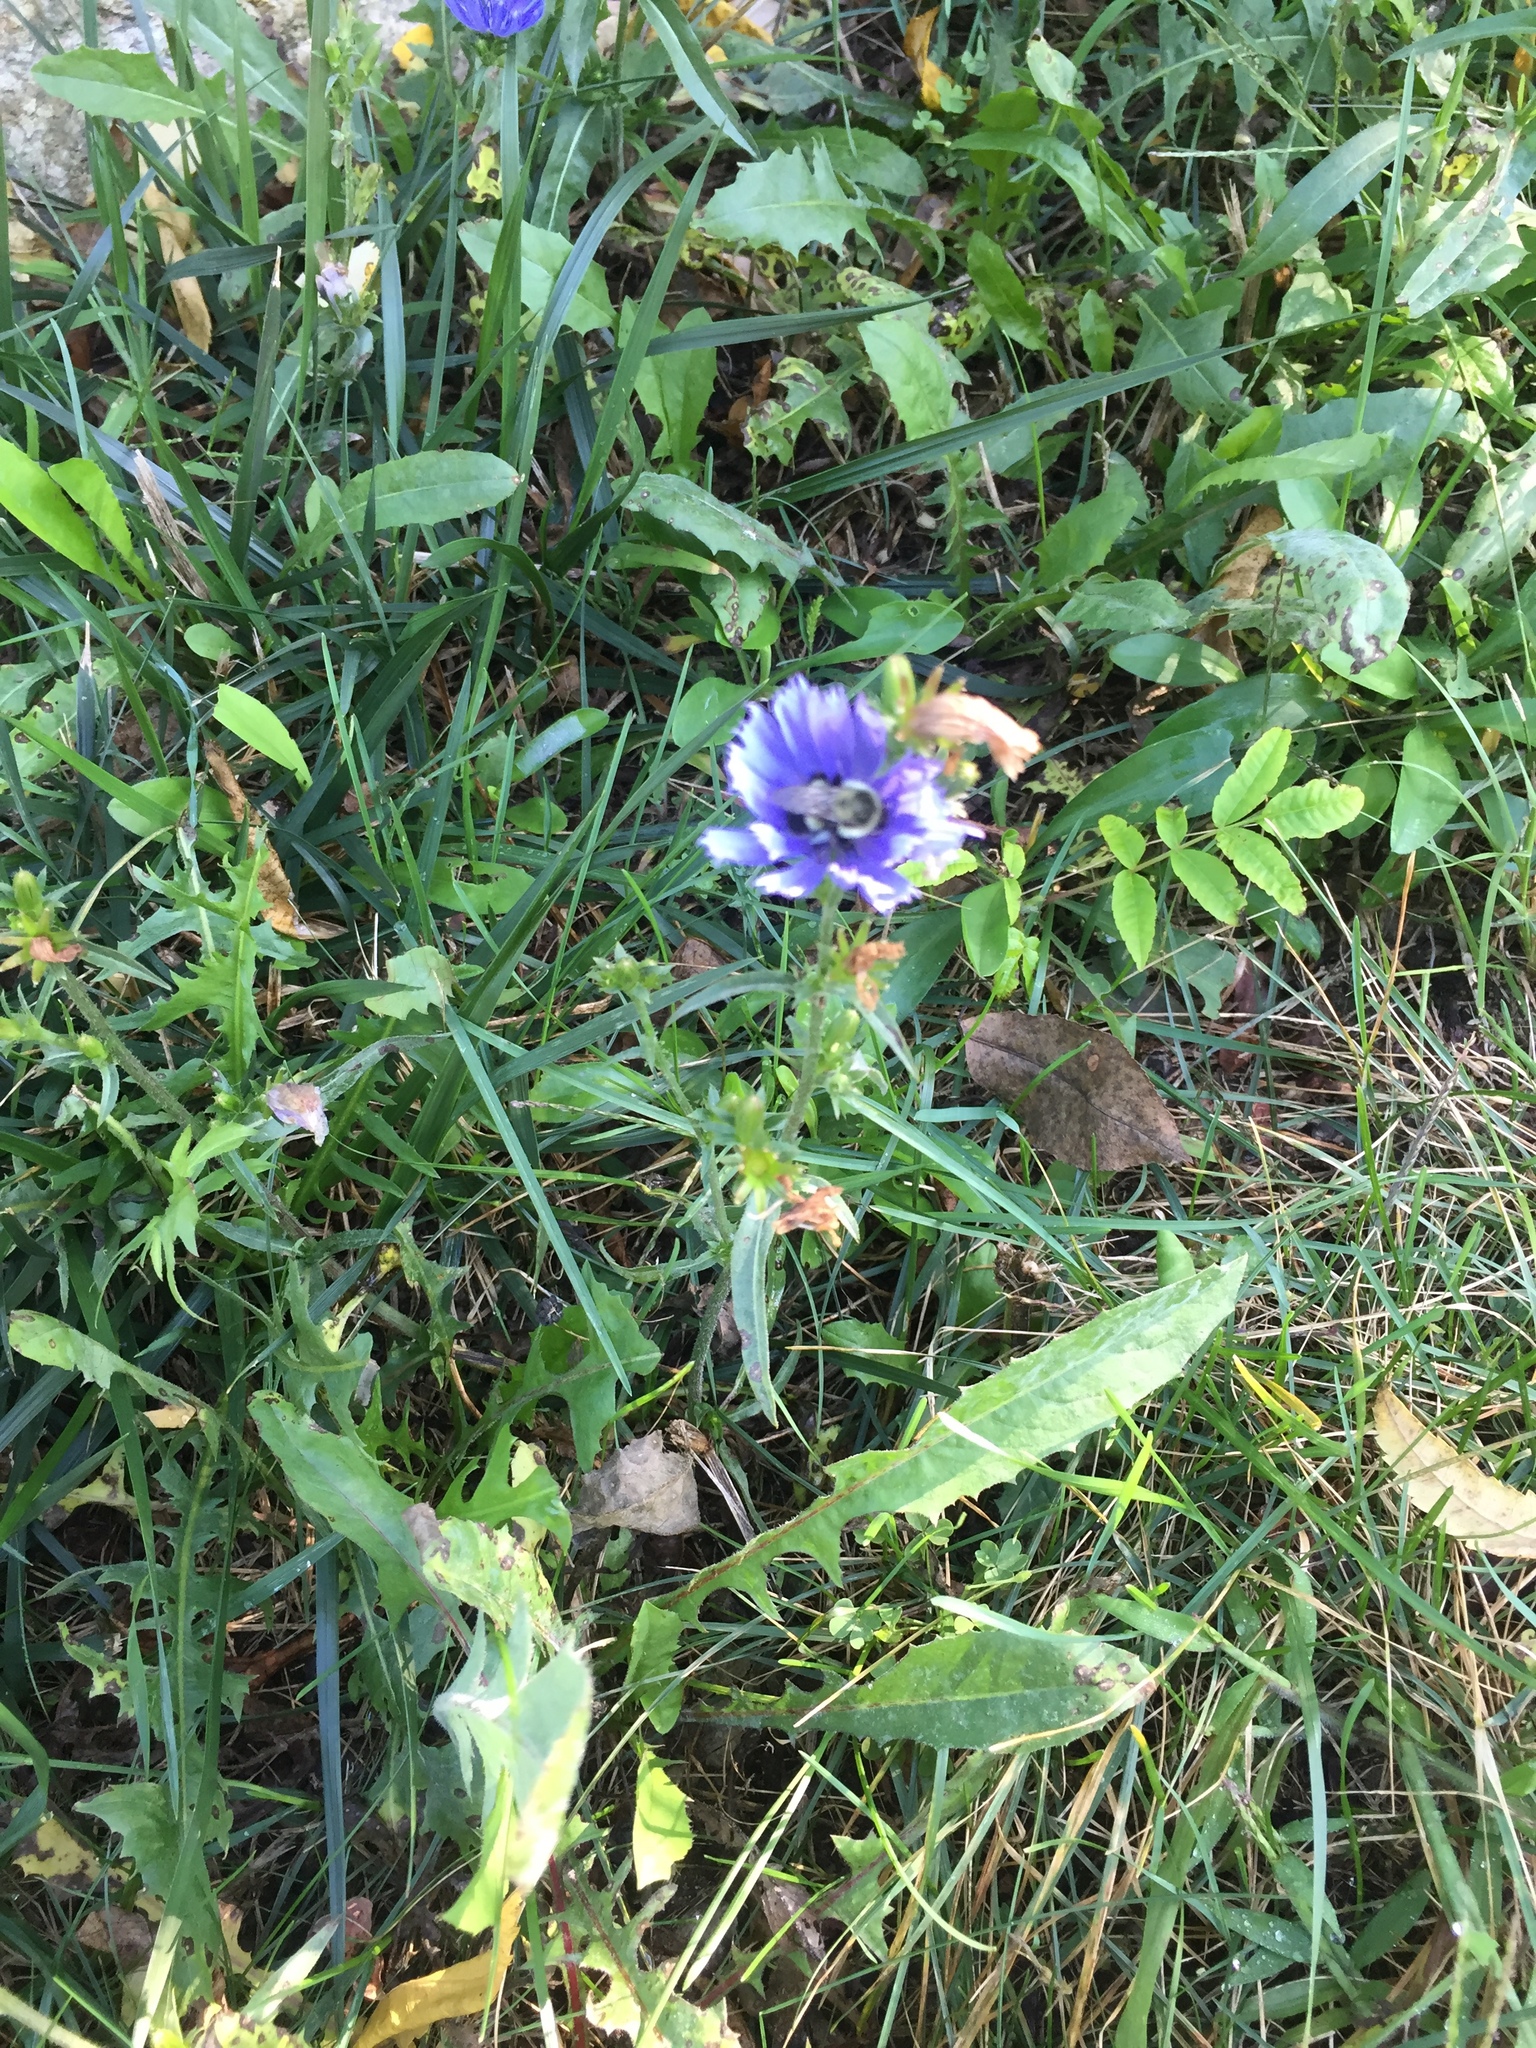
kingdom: Plantae
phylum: Tracheophyta
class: Magnoliopsida
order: Asterales
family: Asteraceae
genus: Cichorium
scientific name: Cichorium intybus
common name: Chicory
